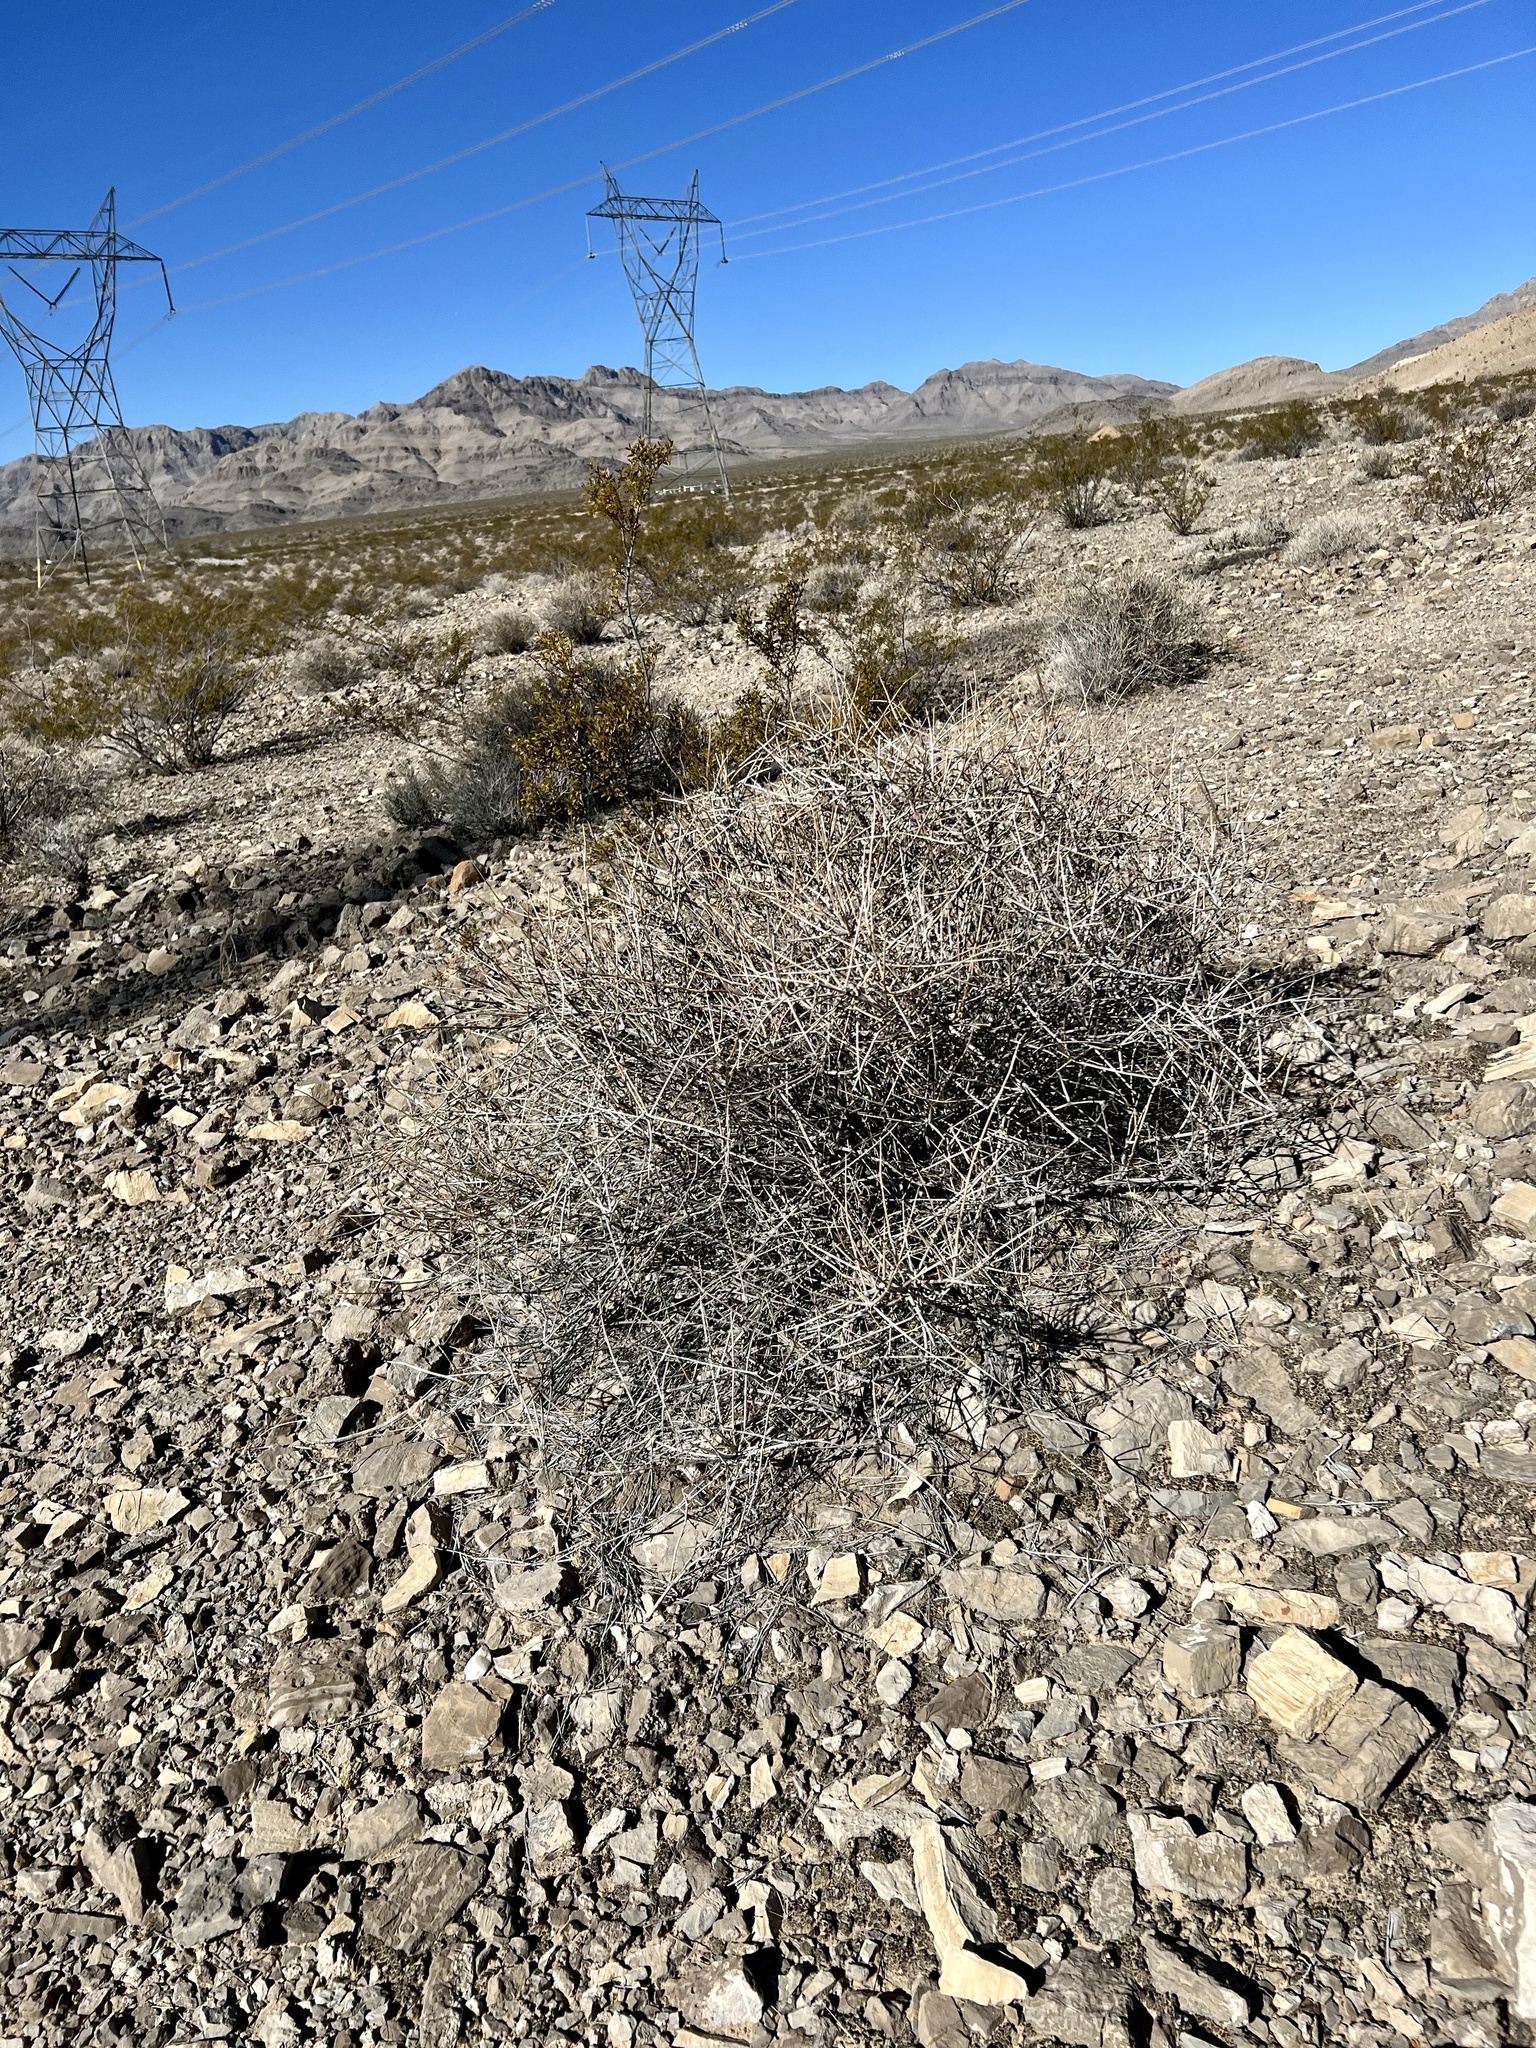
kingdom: Plantae
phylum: Tracheophyta
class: Gnetopsida
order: Ephedrales
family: Ephedraceae
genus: Ephedra
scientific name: Ephedra nevadensis
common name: Gray ephedra
